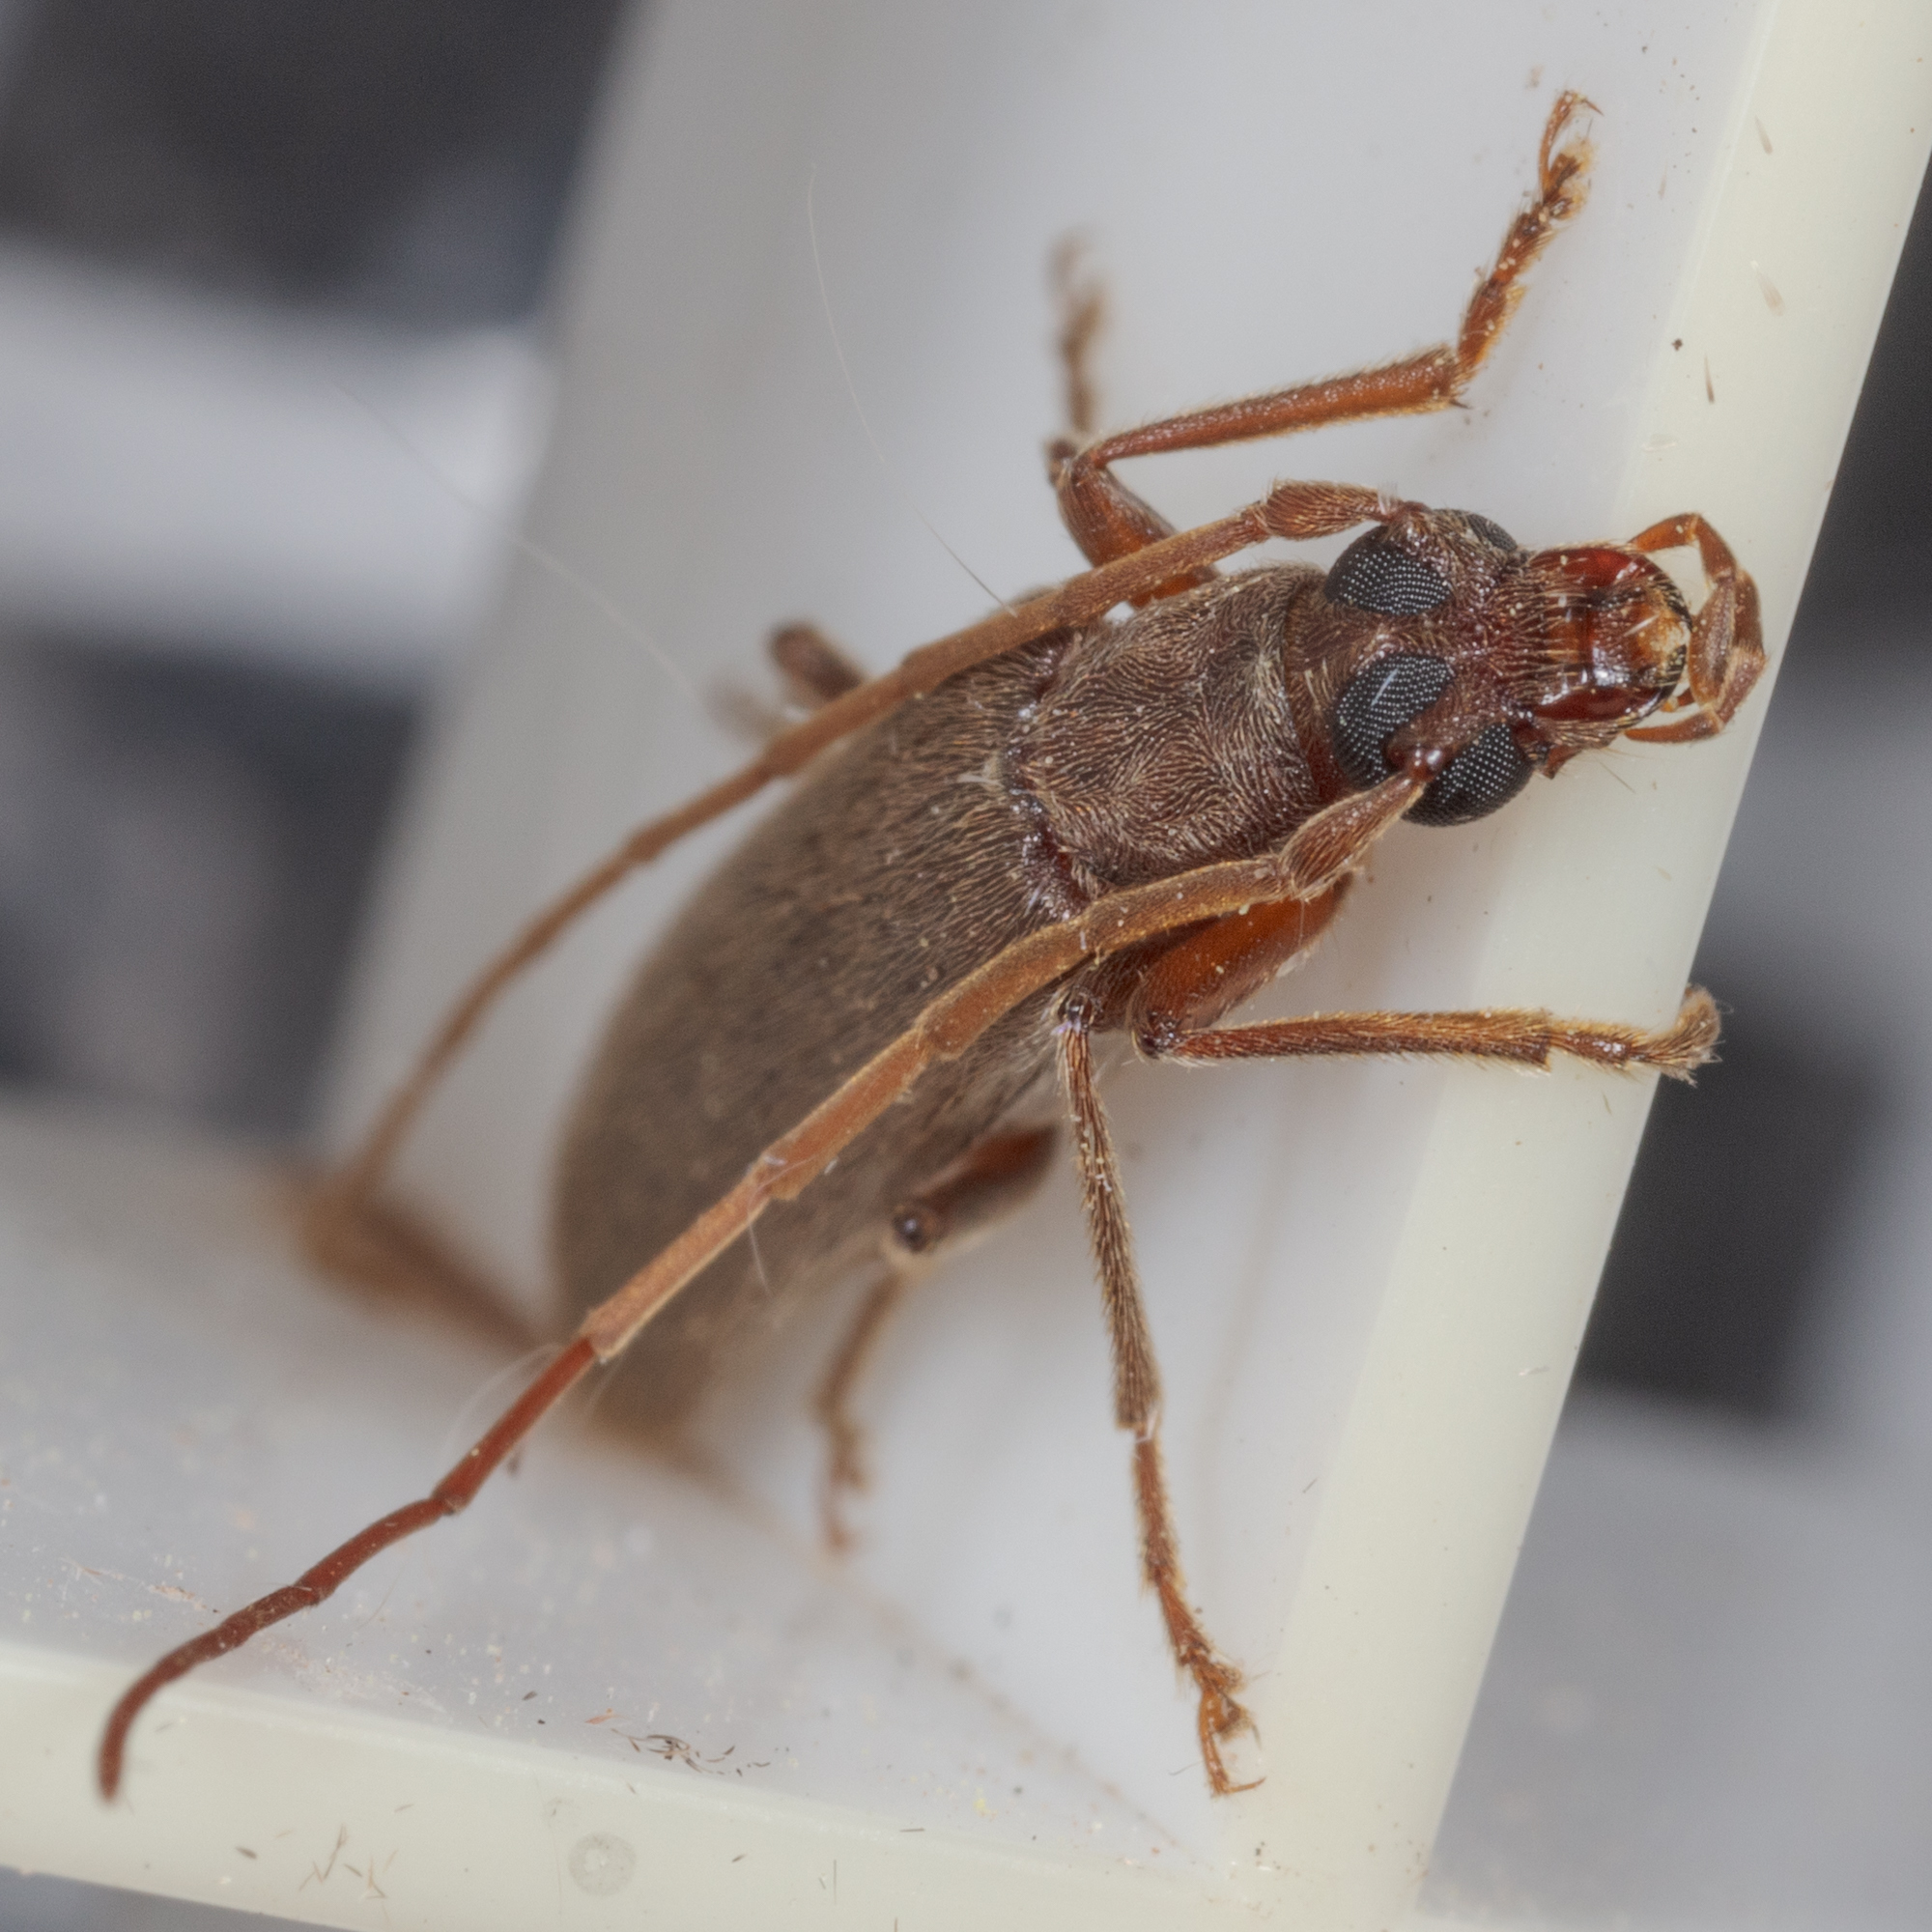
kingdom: Animalia
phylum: Arthropoda
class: Insecta
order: Coleoptera
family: Oedemeridae
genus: Sparedrus
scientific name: Sparedrus aspersus
